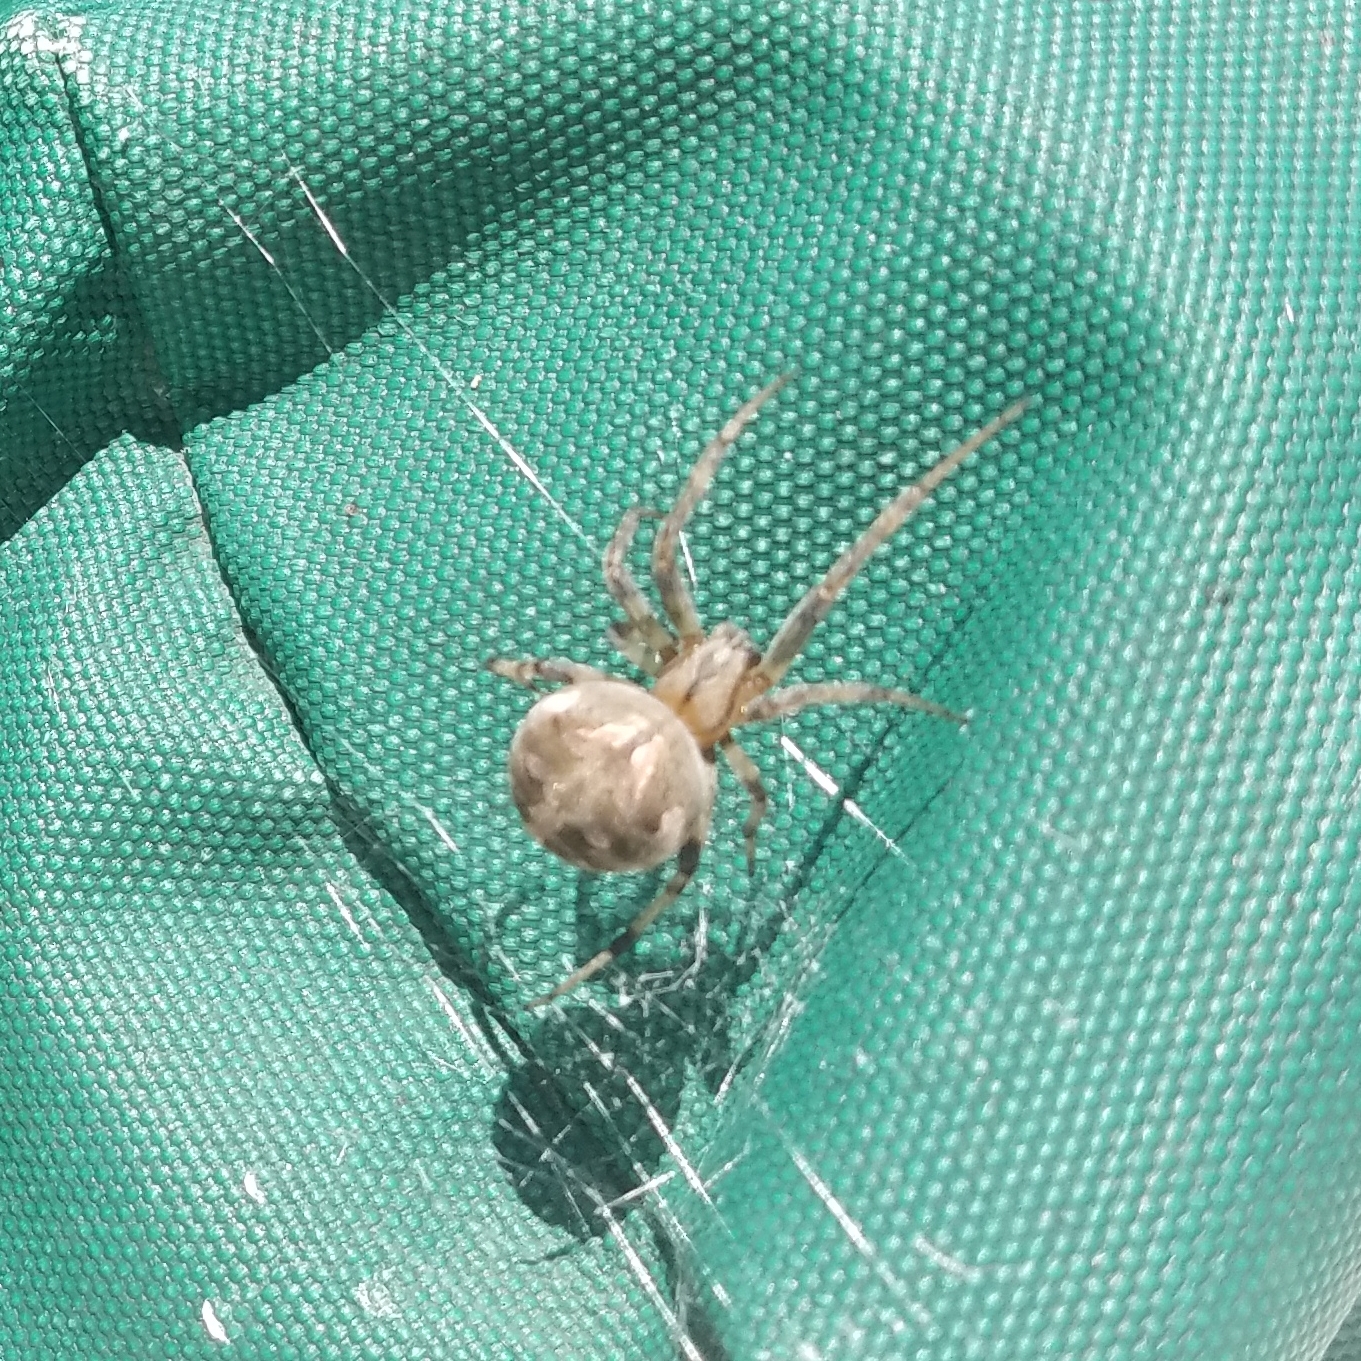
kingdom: Animalia
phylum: Arthropoda
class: Arachnida
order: Araneae
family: Araneidae
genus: Neoscona
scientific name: Neoscona arabesca
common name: Orb weavers
